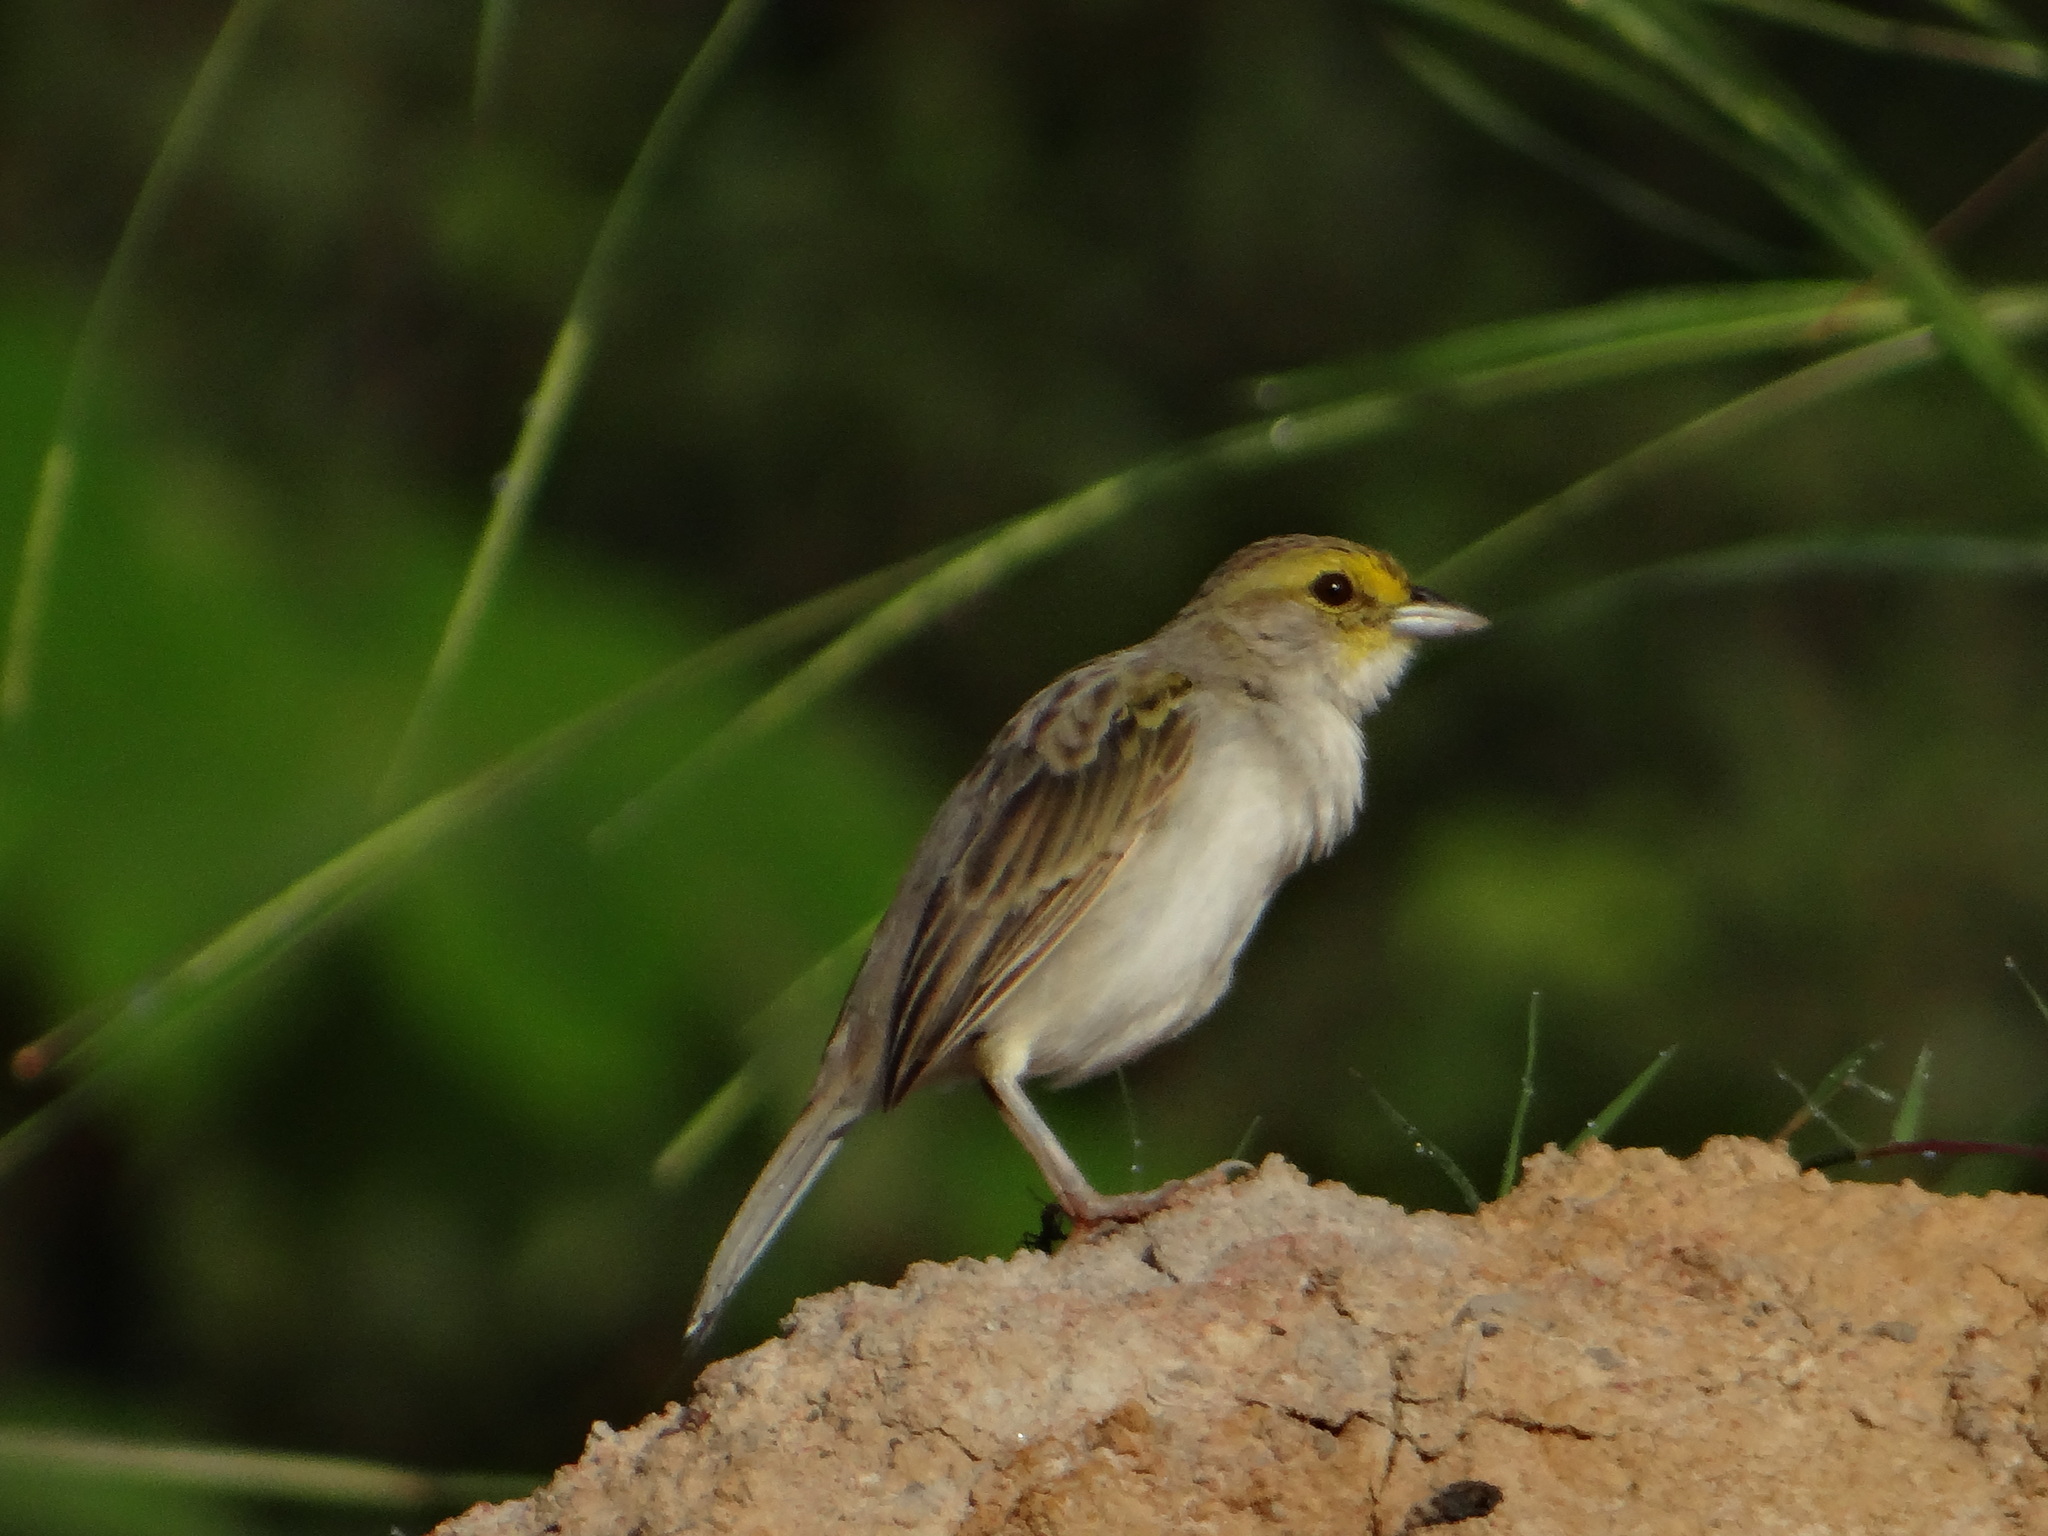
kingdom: Animalia
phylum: Chordata
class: Aves
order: Passeriformes
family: Passerellidae
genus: Ammodramus
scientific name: Ammodramus aurifrons
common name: Yellow-browed sparrow
